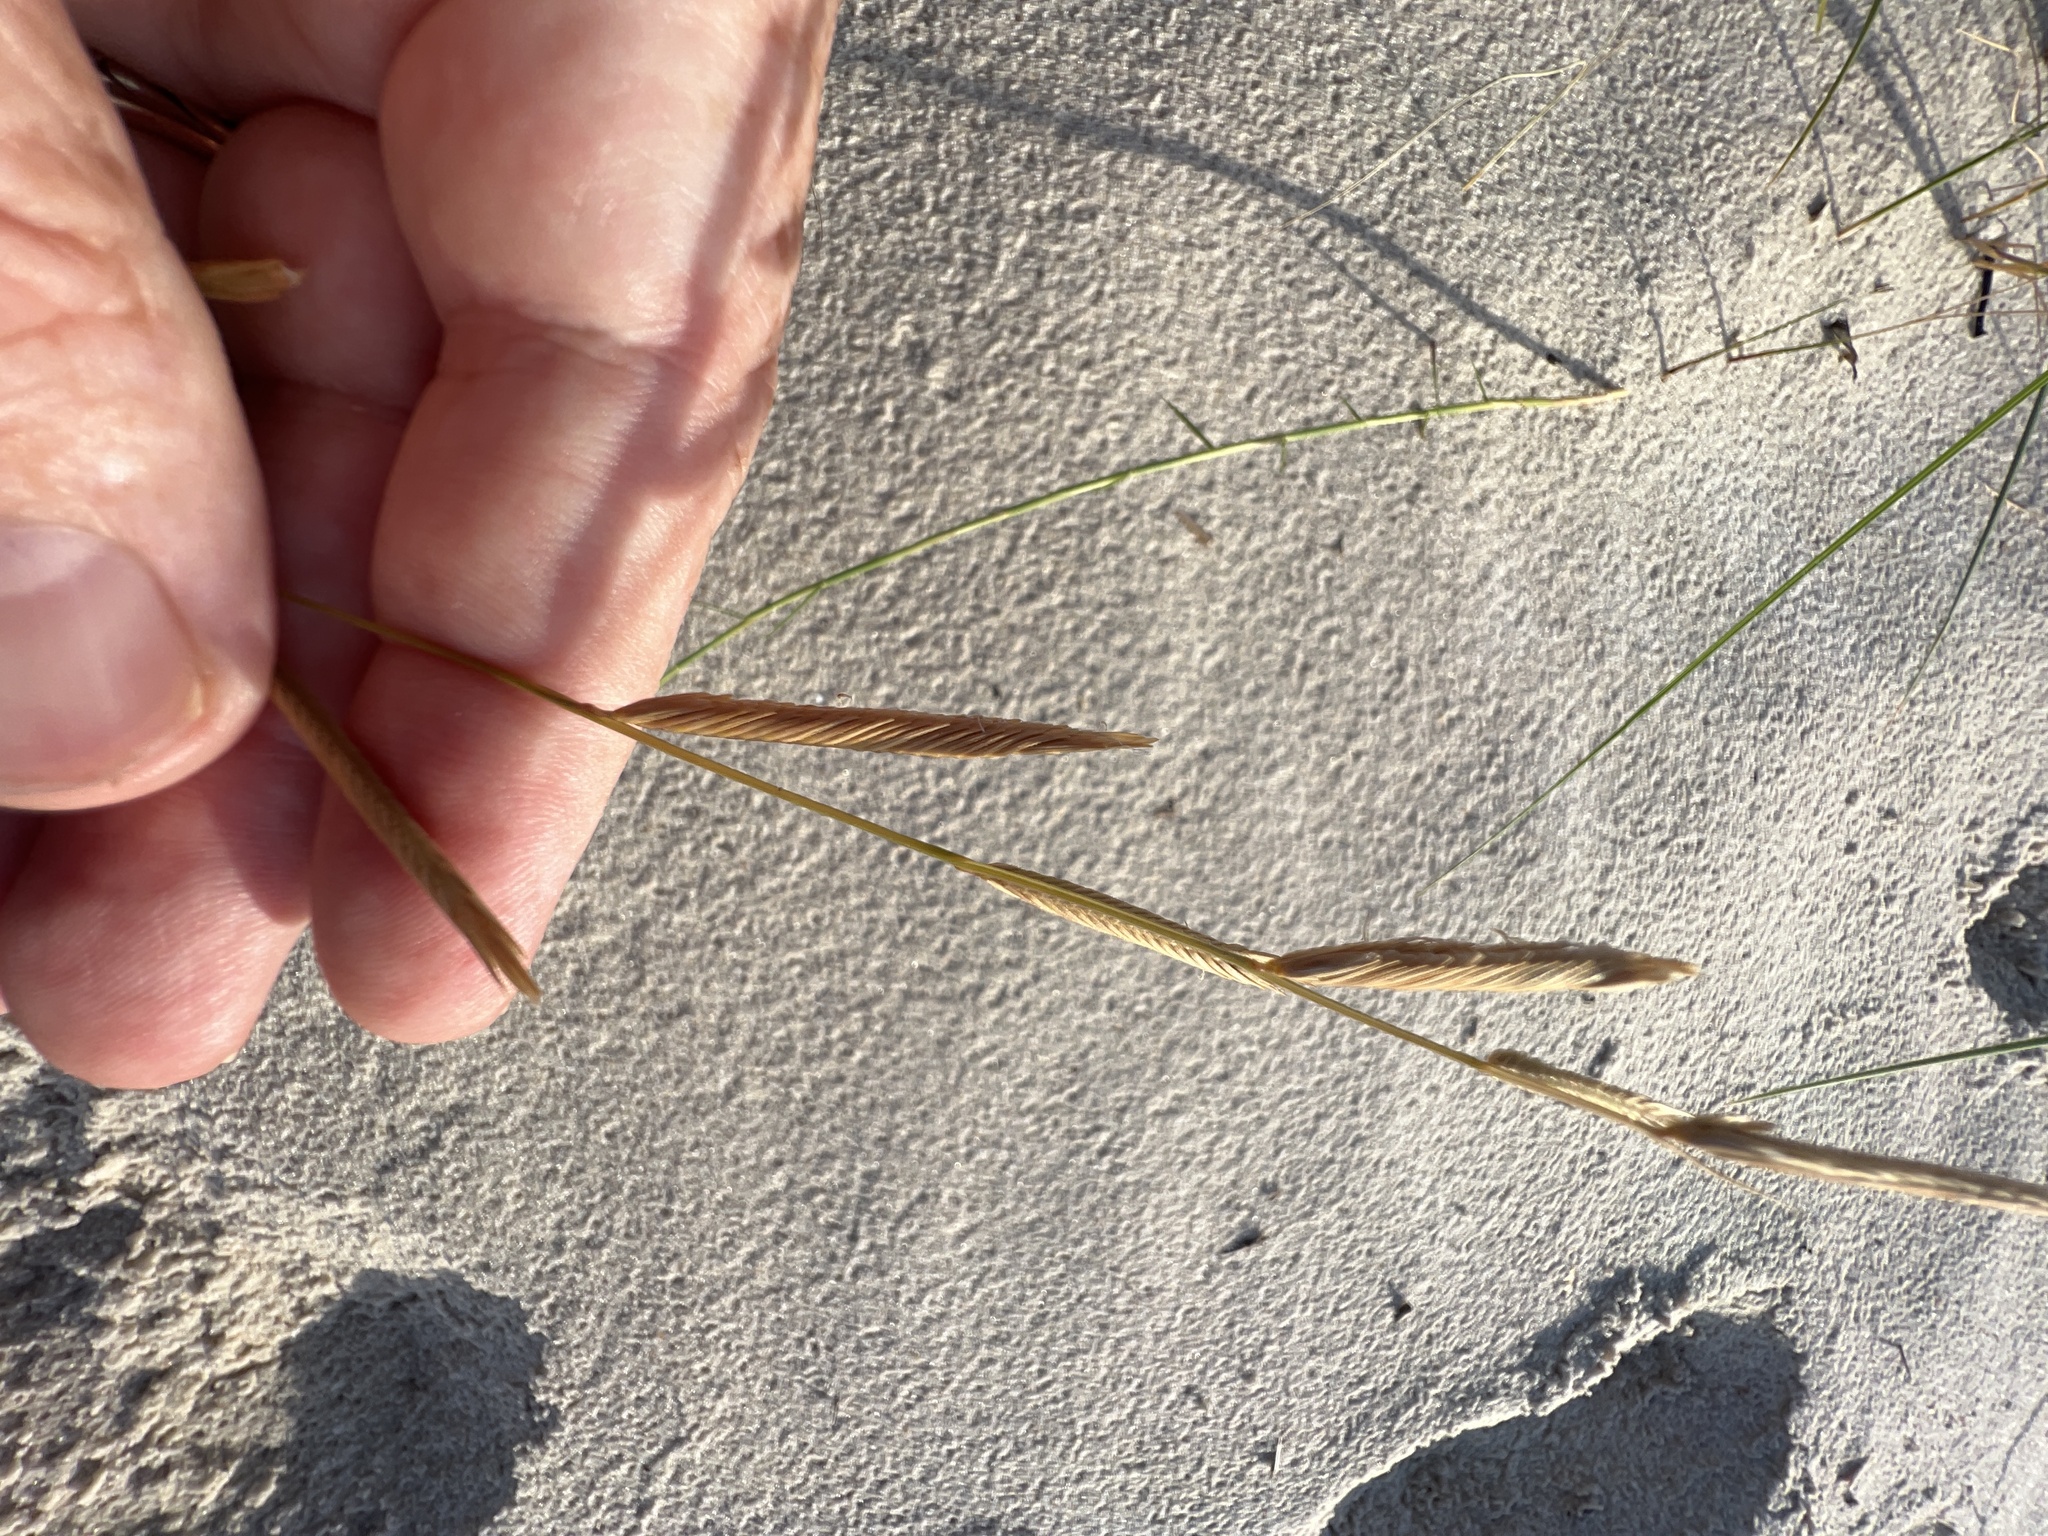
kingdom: Plantae
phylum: Tracheophyta
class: Liliopsida
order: Poales
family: Poaceae
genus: Sporobolus
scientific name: Sporobolus pumilus
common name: Highwater grass
